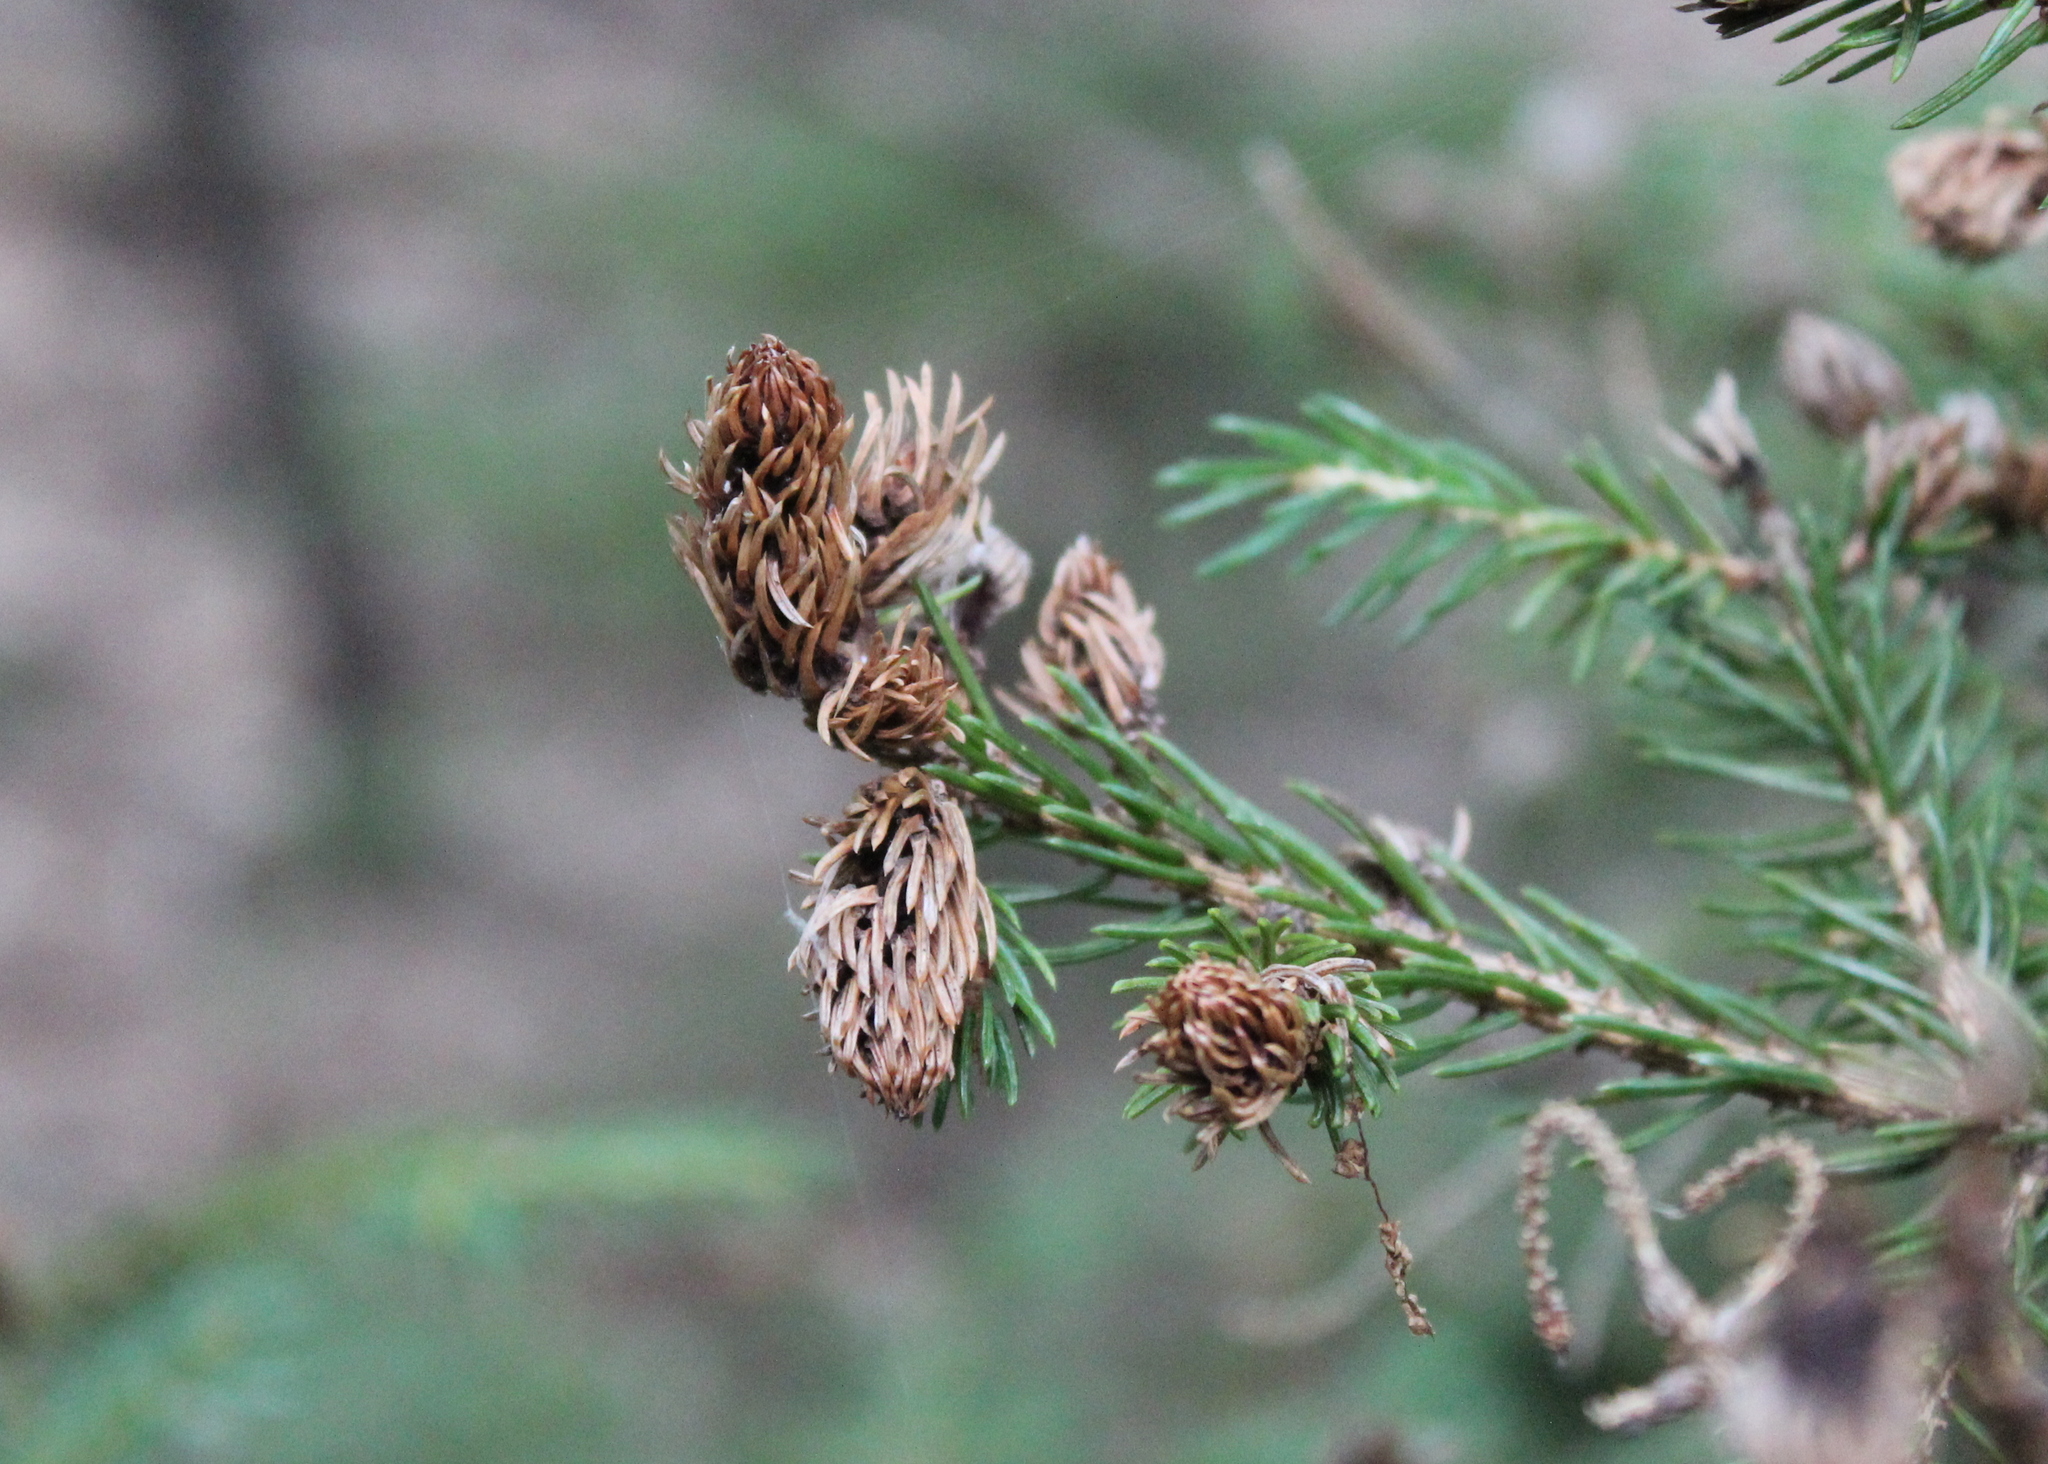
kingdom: Animalia
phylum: Arthropoda
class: Insecta
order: Hemiptera
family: Adelgidae
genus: Adelges
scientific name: Adelges abietis
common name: Eastern spruce gall adelgid
